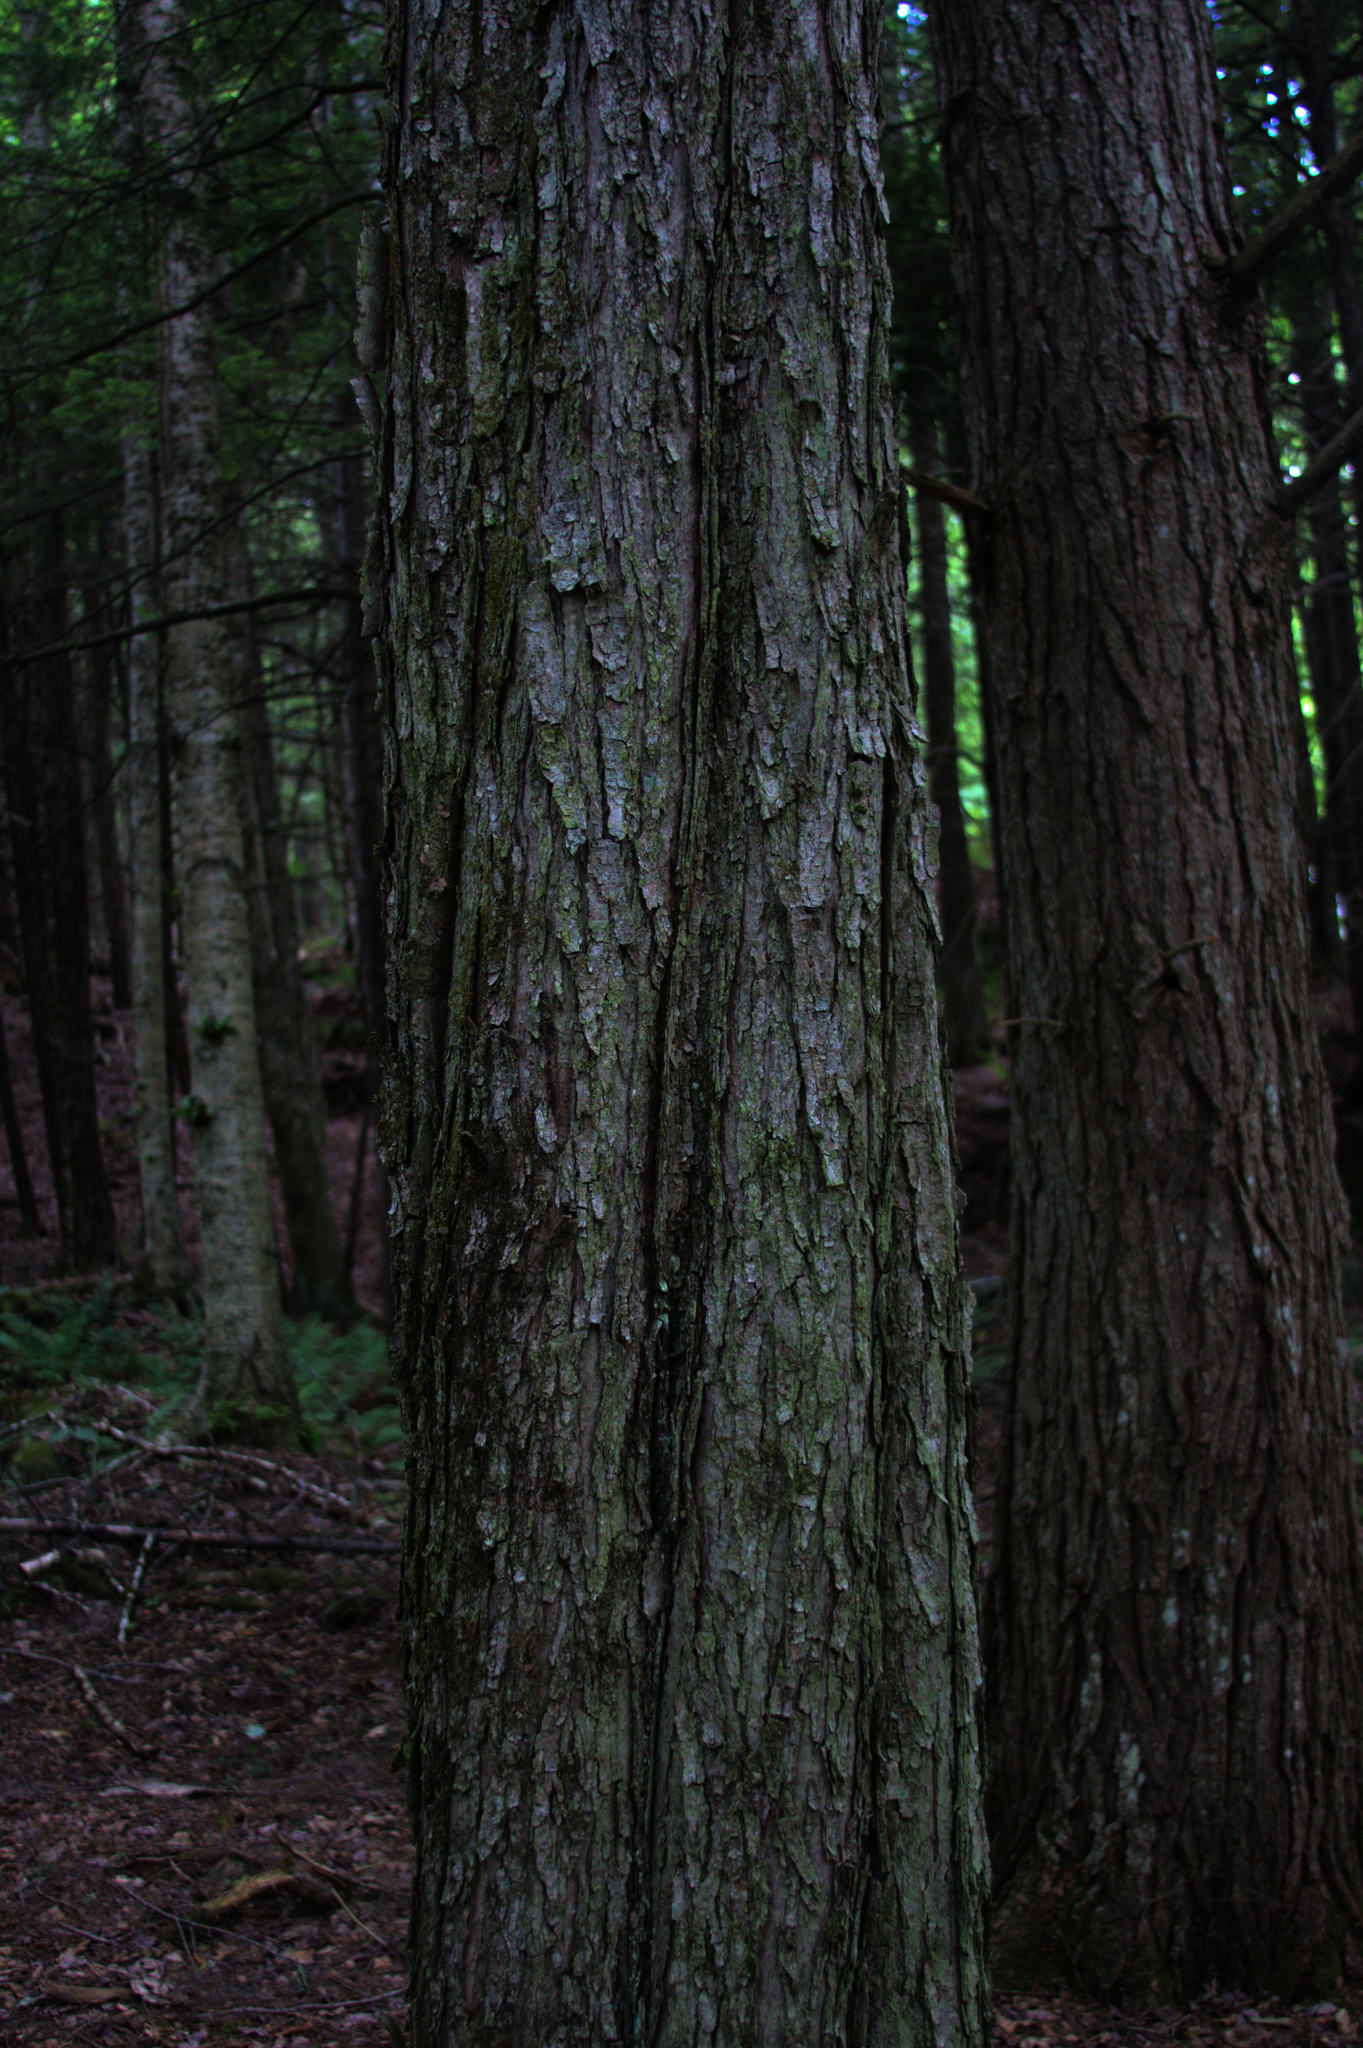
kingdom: Plantae
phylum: Tracheophyta
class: Magnoliopsida
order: Sapindales
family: Sapindaceae
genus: Acer
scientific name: Acer rubrum
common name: Red maple
